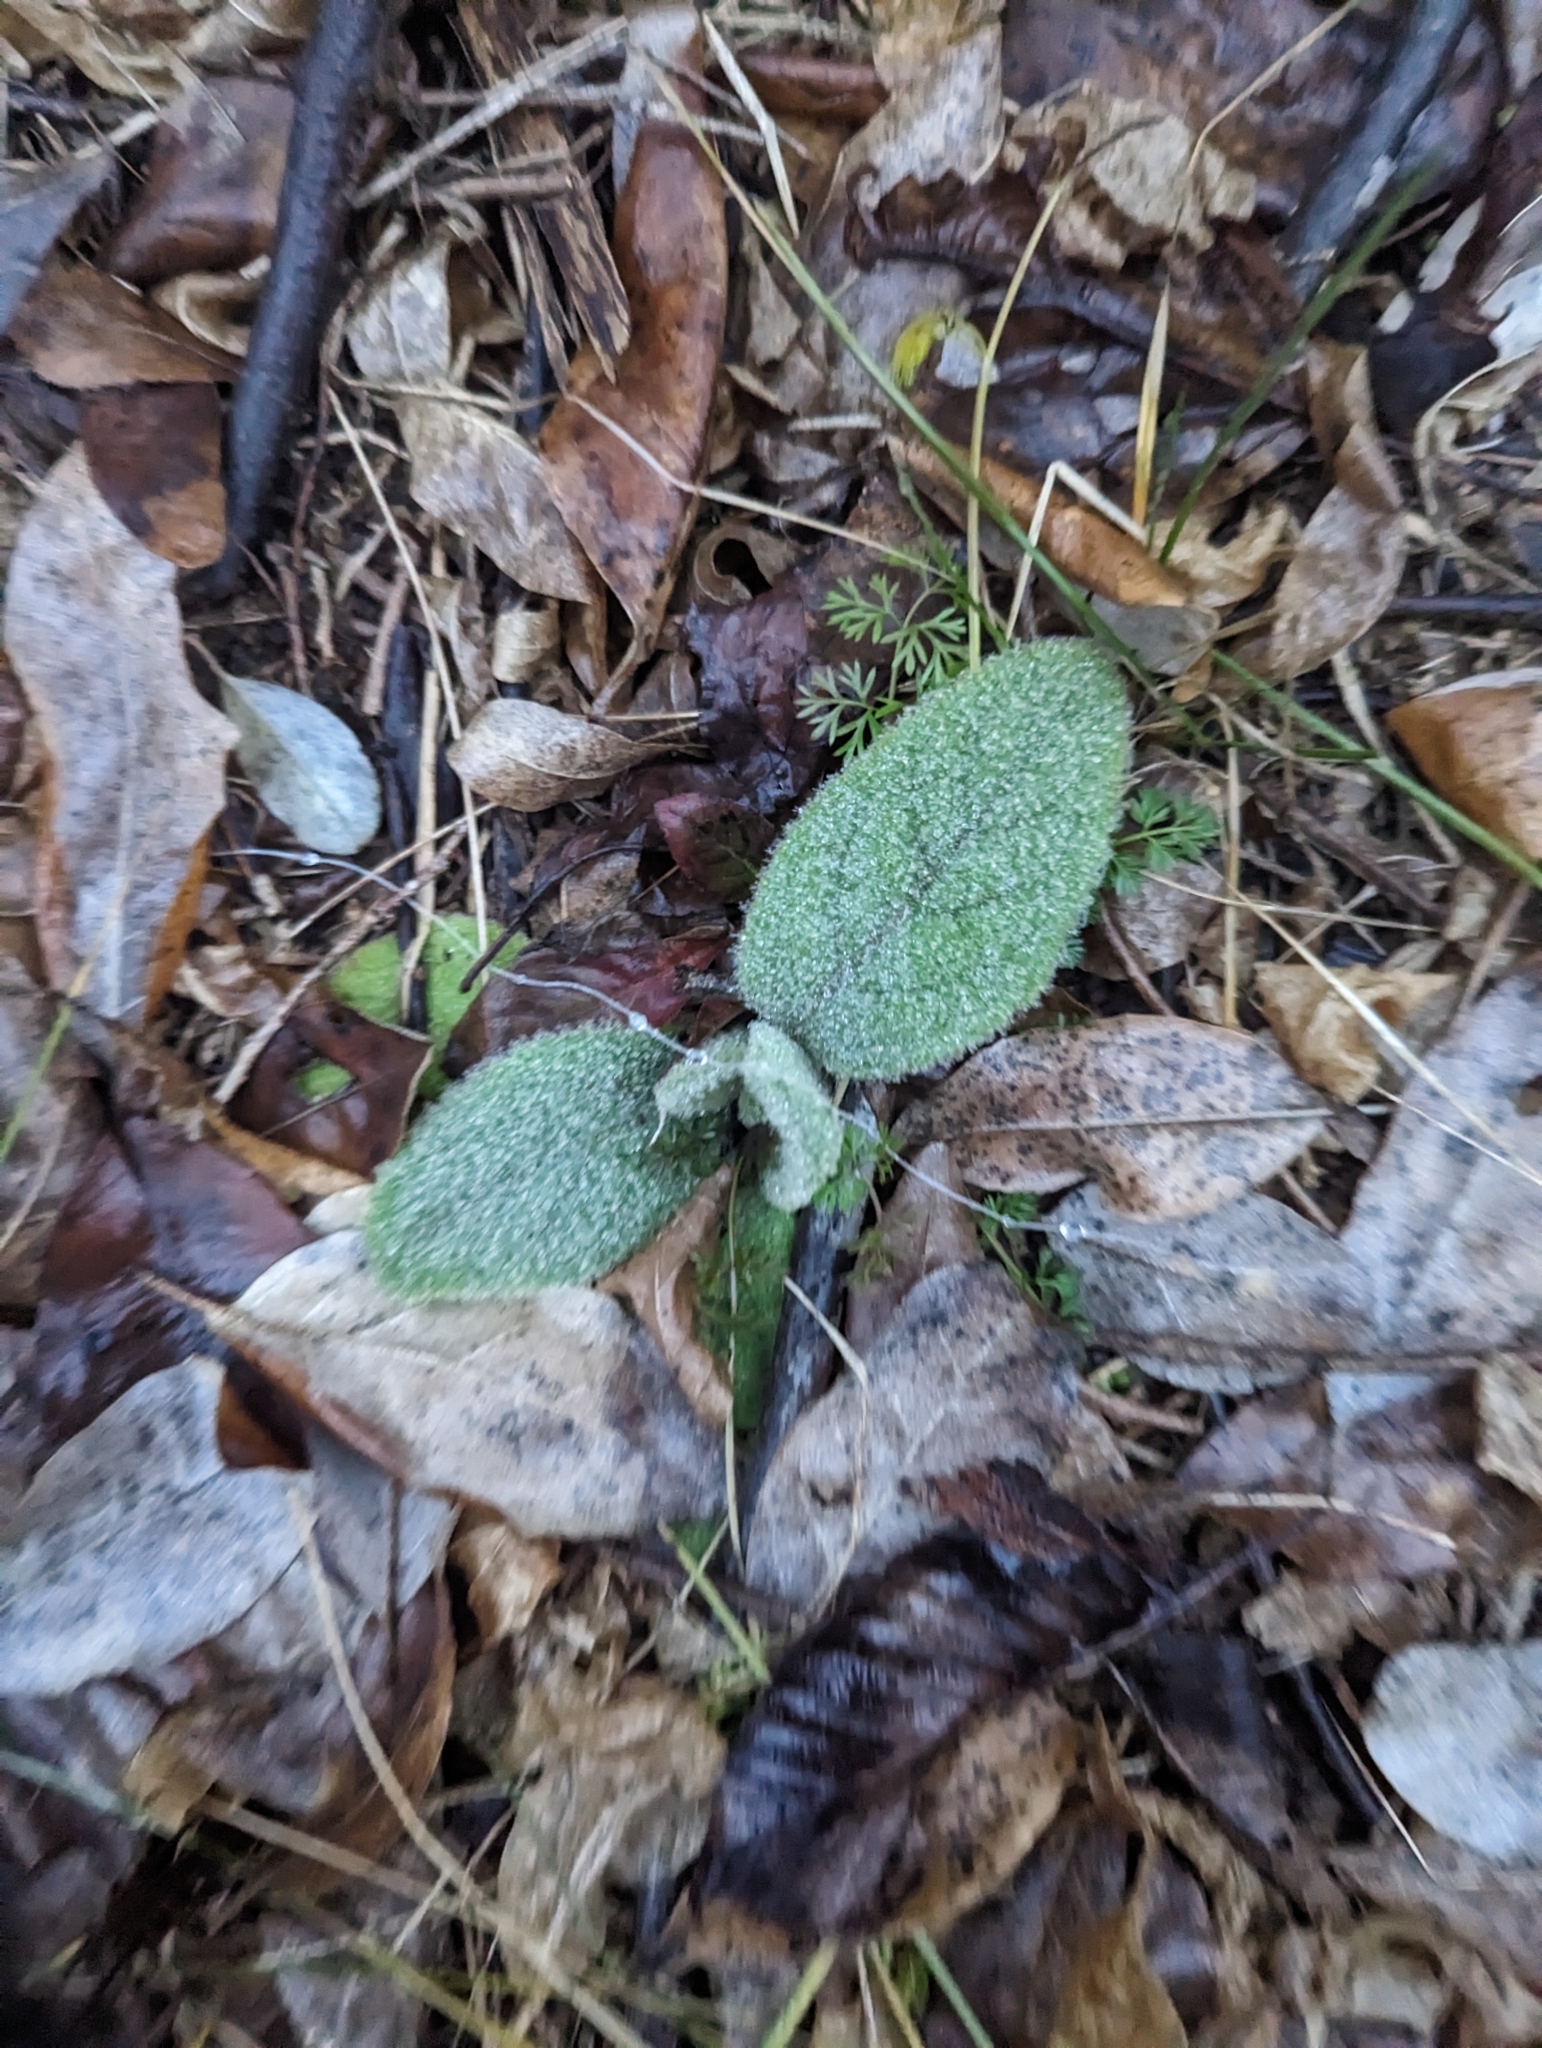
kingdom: Plantae
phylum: Tracheophyta
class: Magnoliopsida
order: Lamiales
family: Scrophulariaceae
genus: Verbascum
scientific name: Verbascum thapsus
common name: Common mullein
